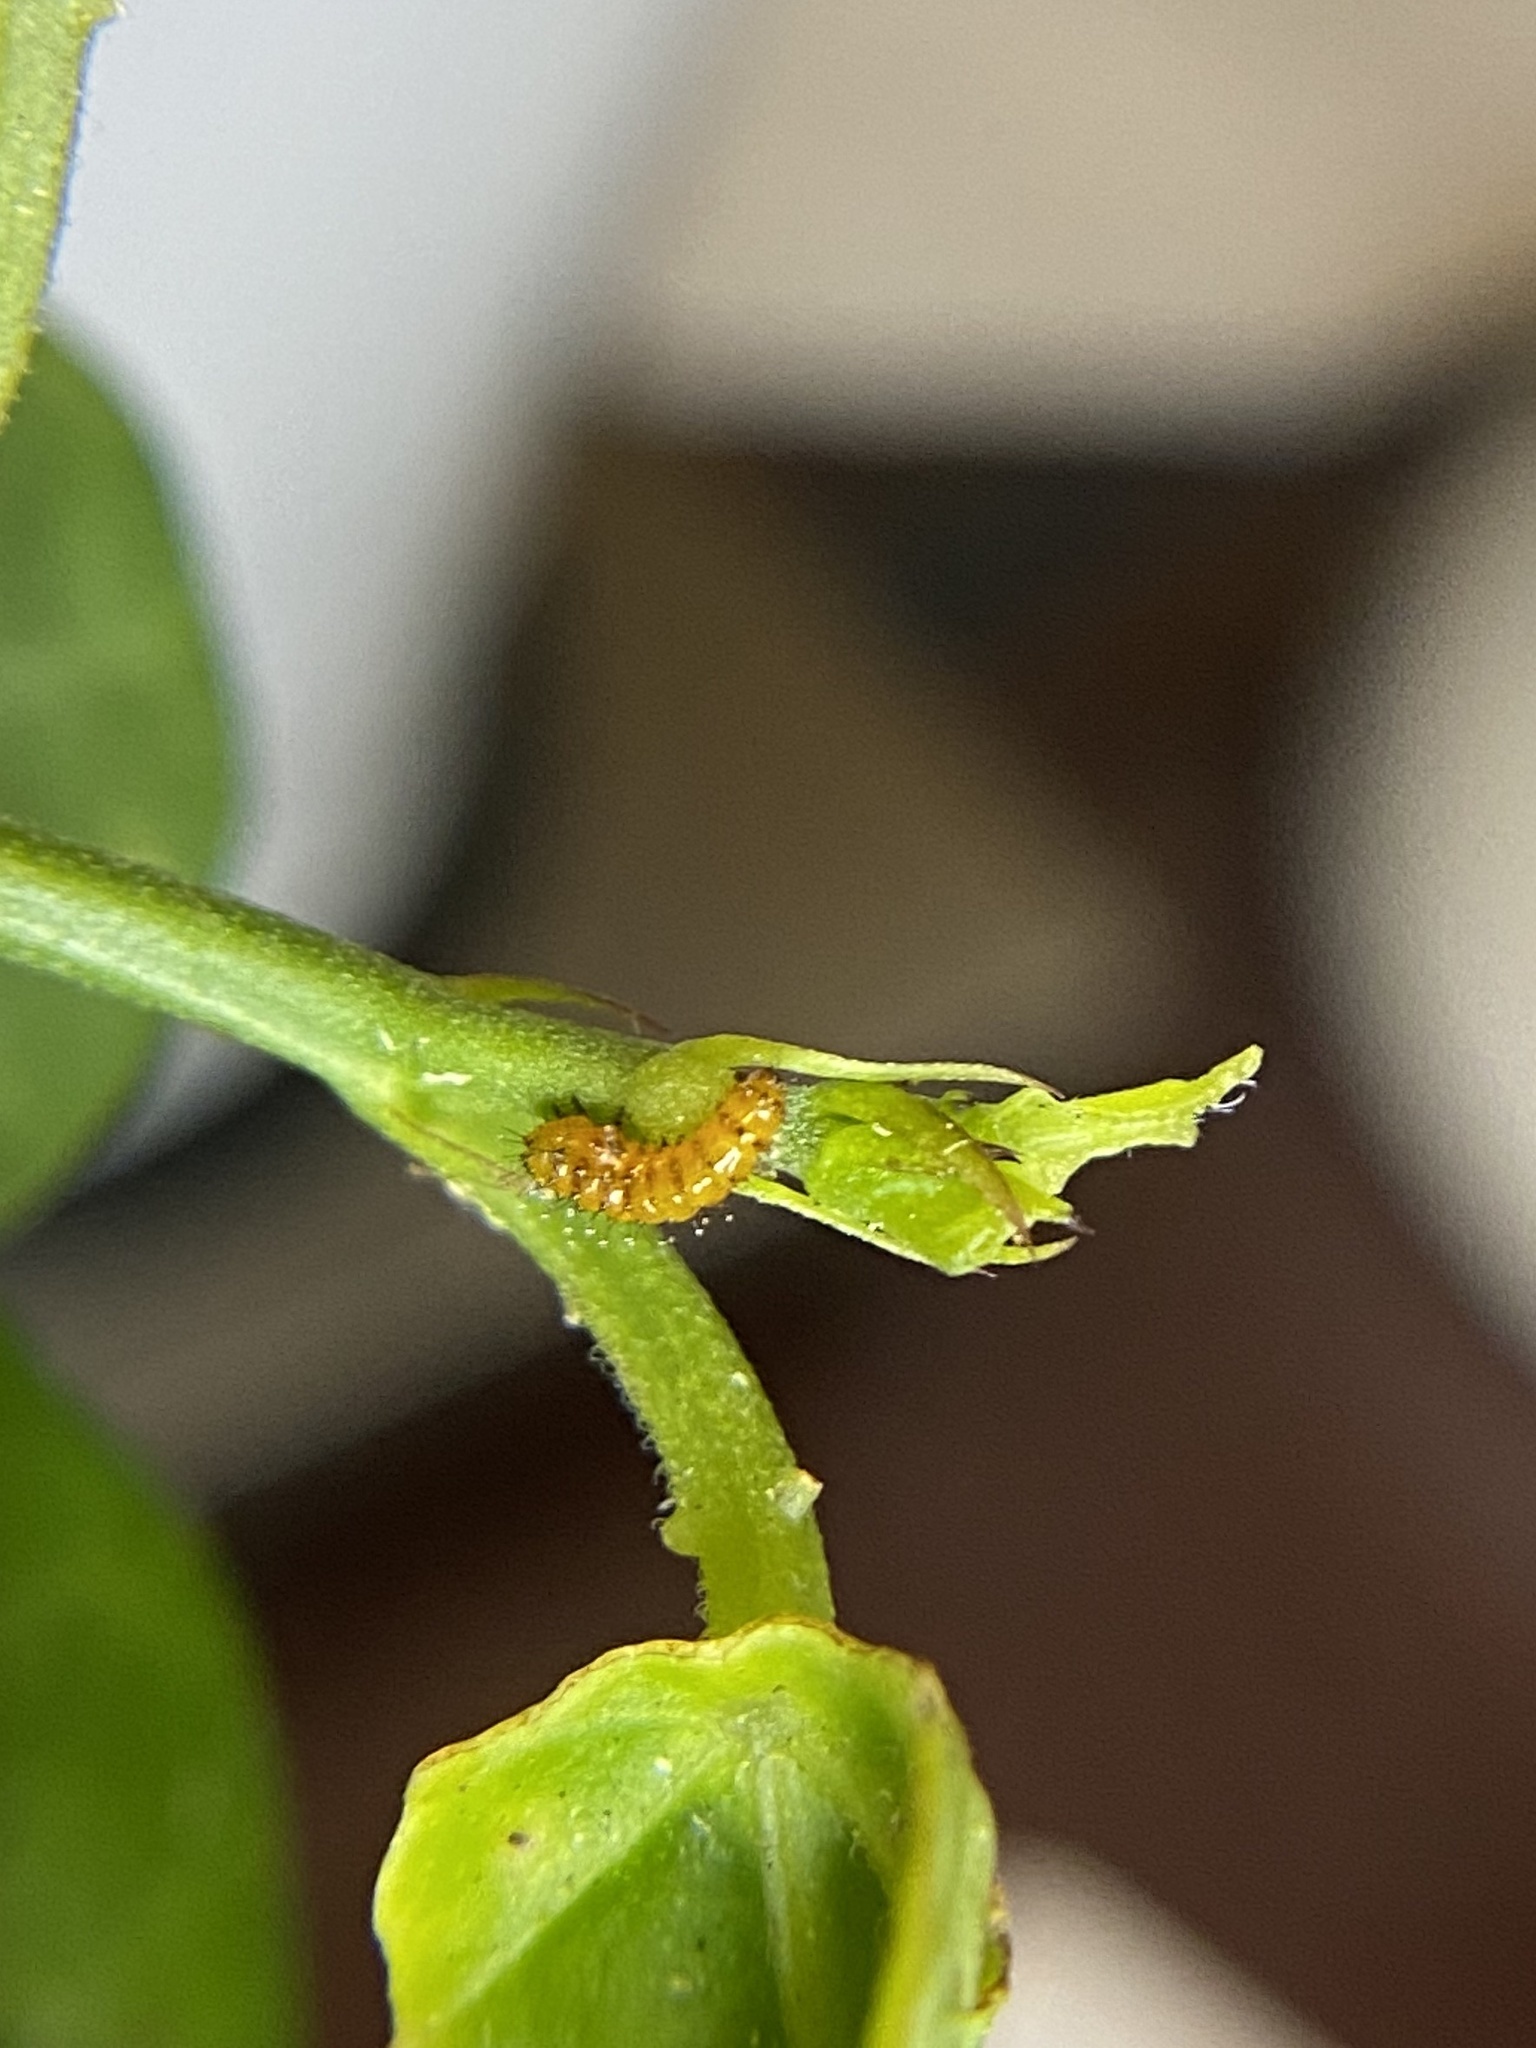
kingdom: Animalia
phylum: Arthropoda
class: Insecta
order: Lepidoptera
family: Nymphalidae
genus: Dione
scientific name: Dione vanillae
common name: Gulf fritillary
